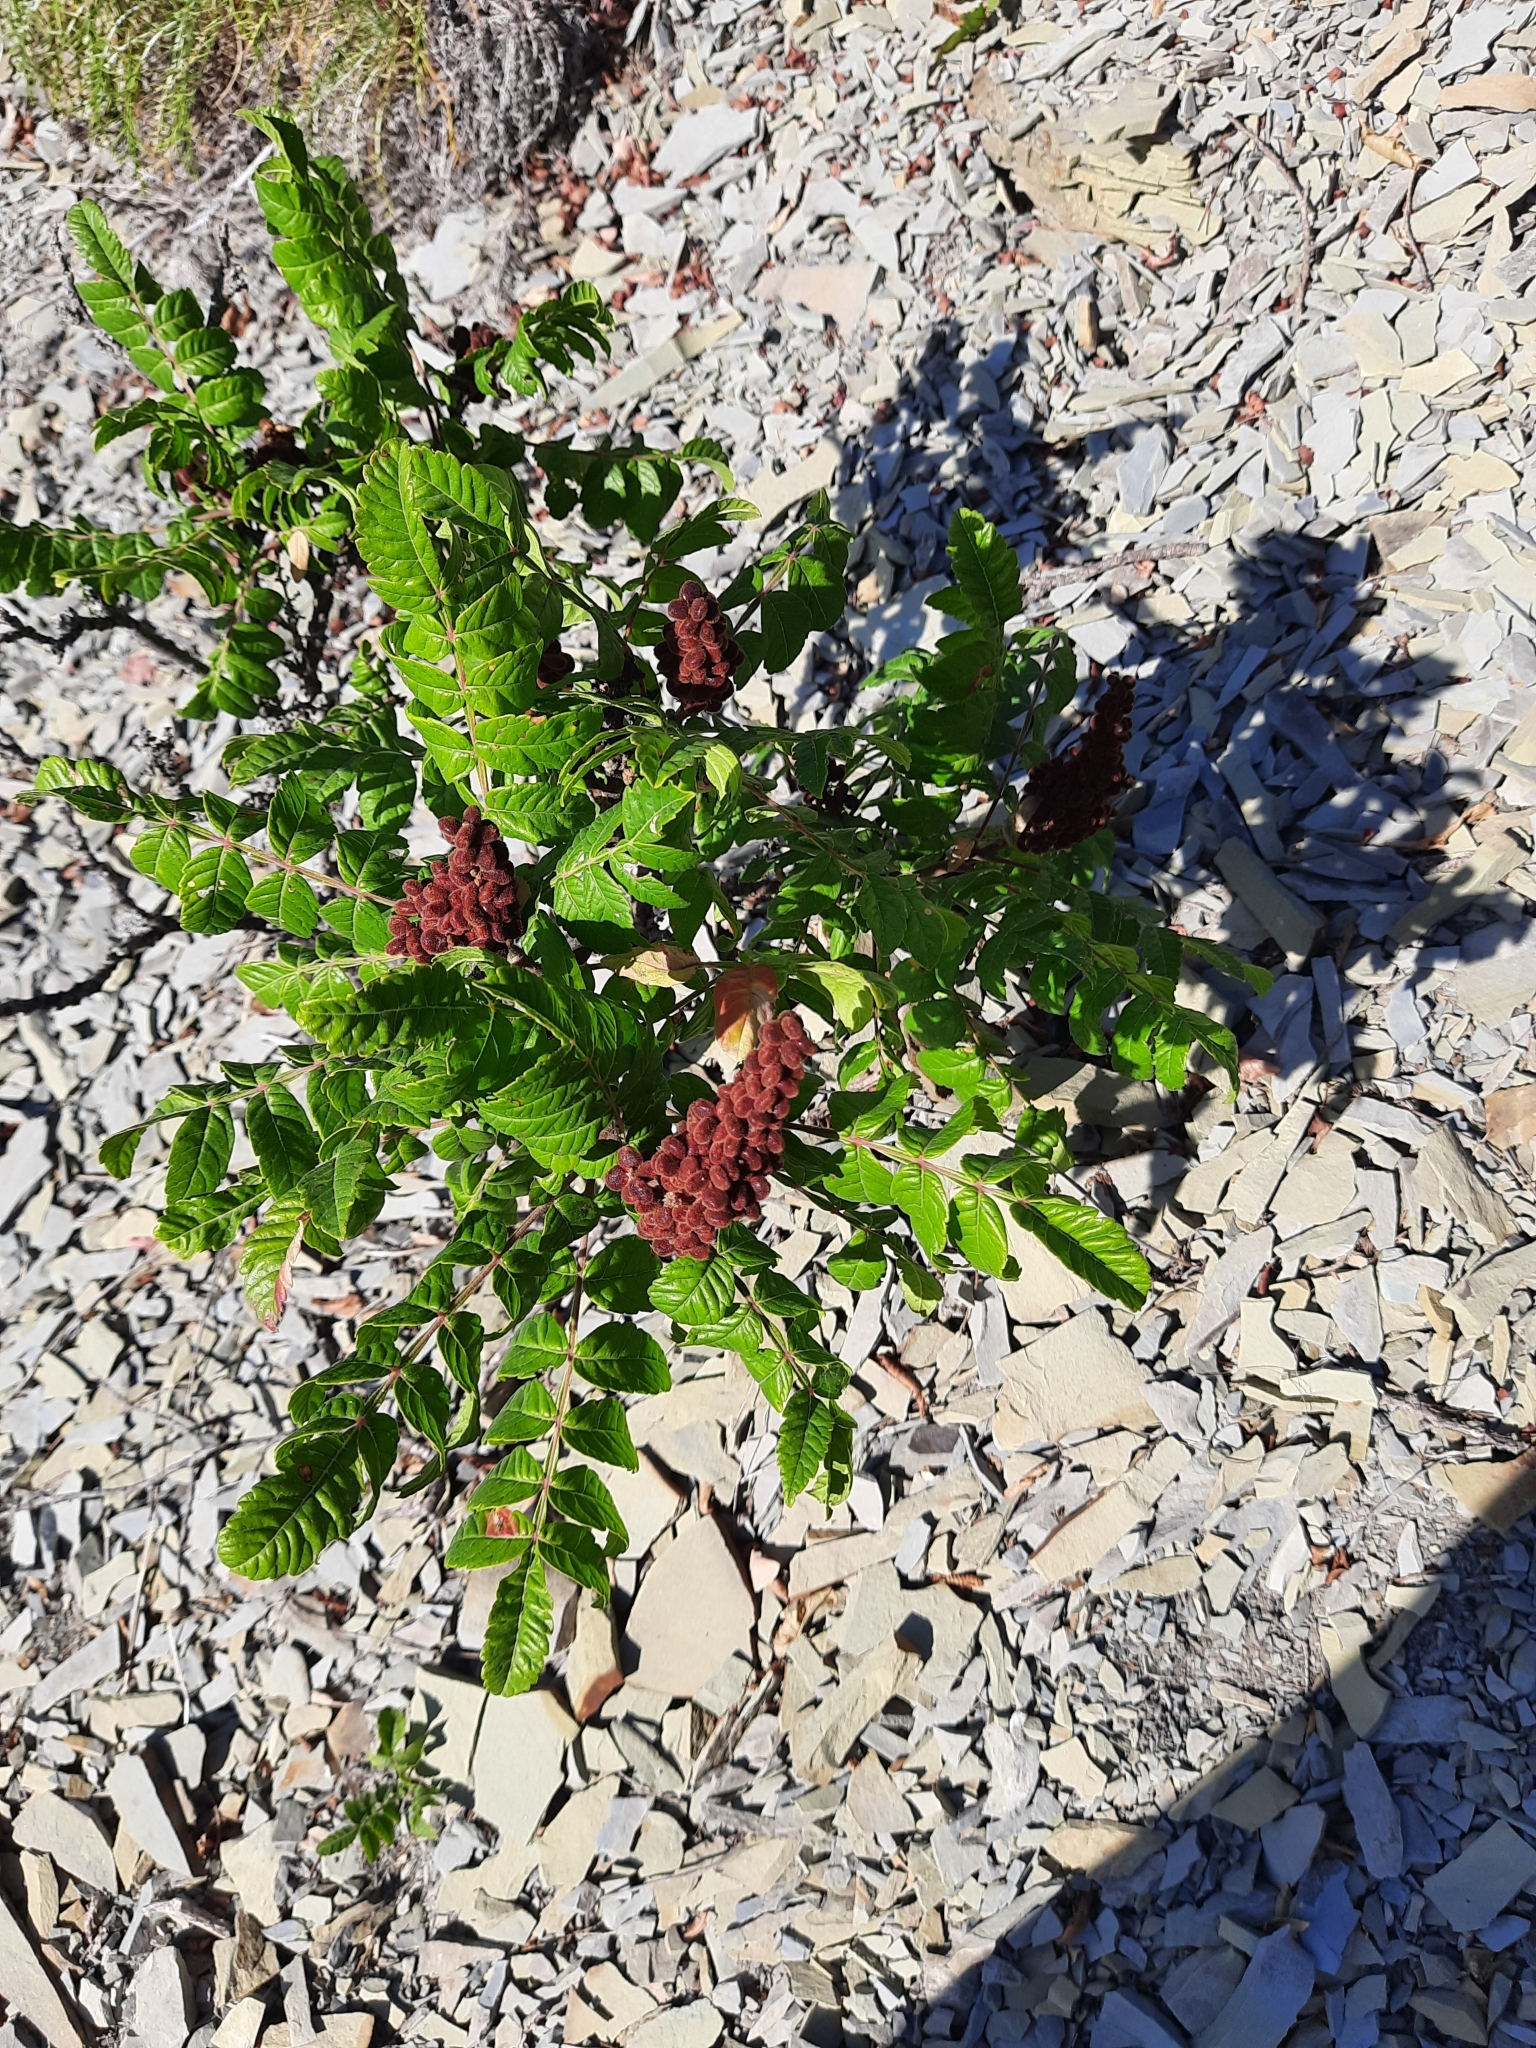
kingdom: Plantae
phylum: Tracheophyta
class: Magnoliopsida
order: Sapindales
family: Anacardiaceae
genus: Rhus
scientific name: Rhus coriaria
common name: Tanner's sumach
